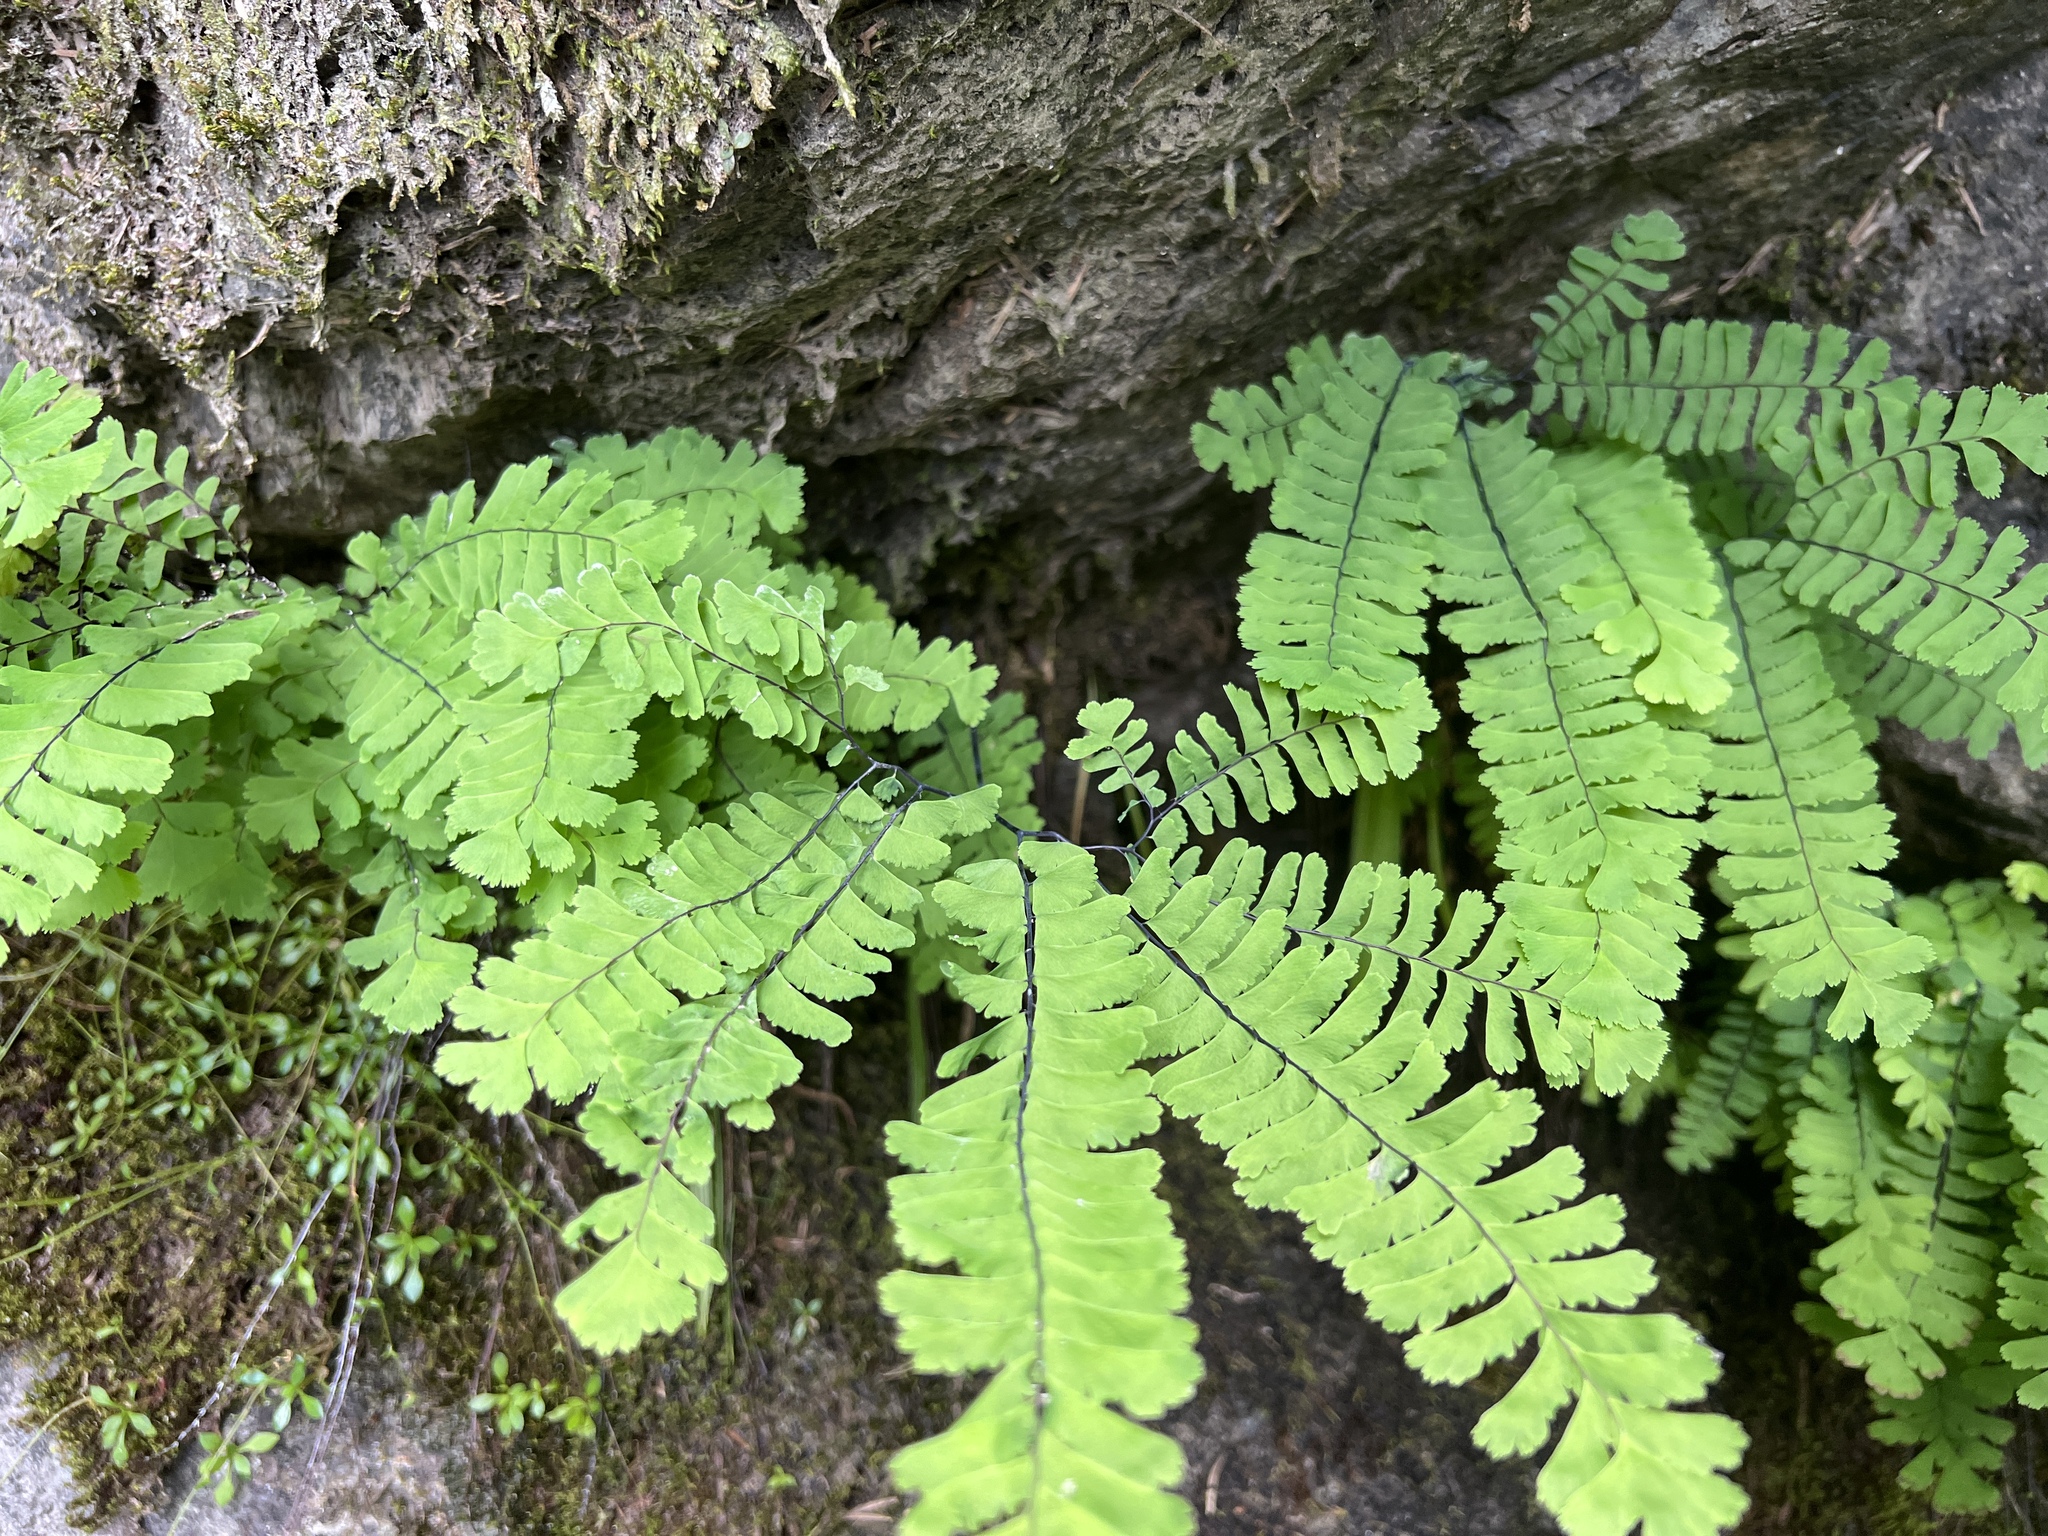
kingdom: Plantae
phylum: Tracheophyta
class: Polypodiopsida
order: Polypodiales
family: Pteridaceae
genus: Adiantum
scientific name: Adiantum aleuticum
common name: Aleutian maidenhair fern
